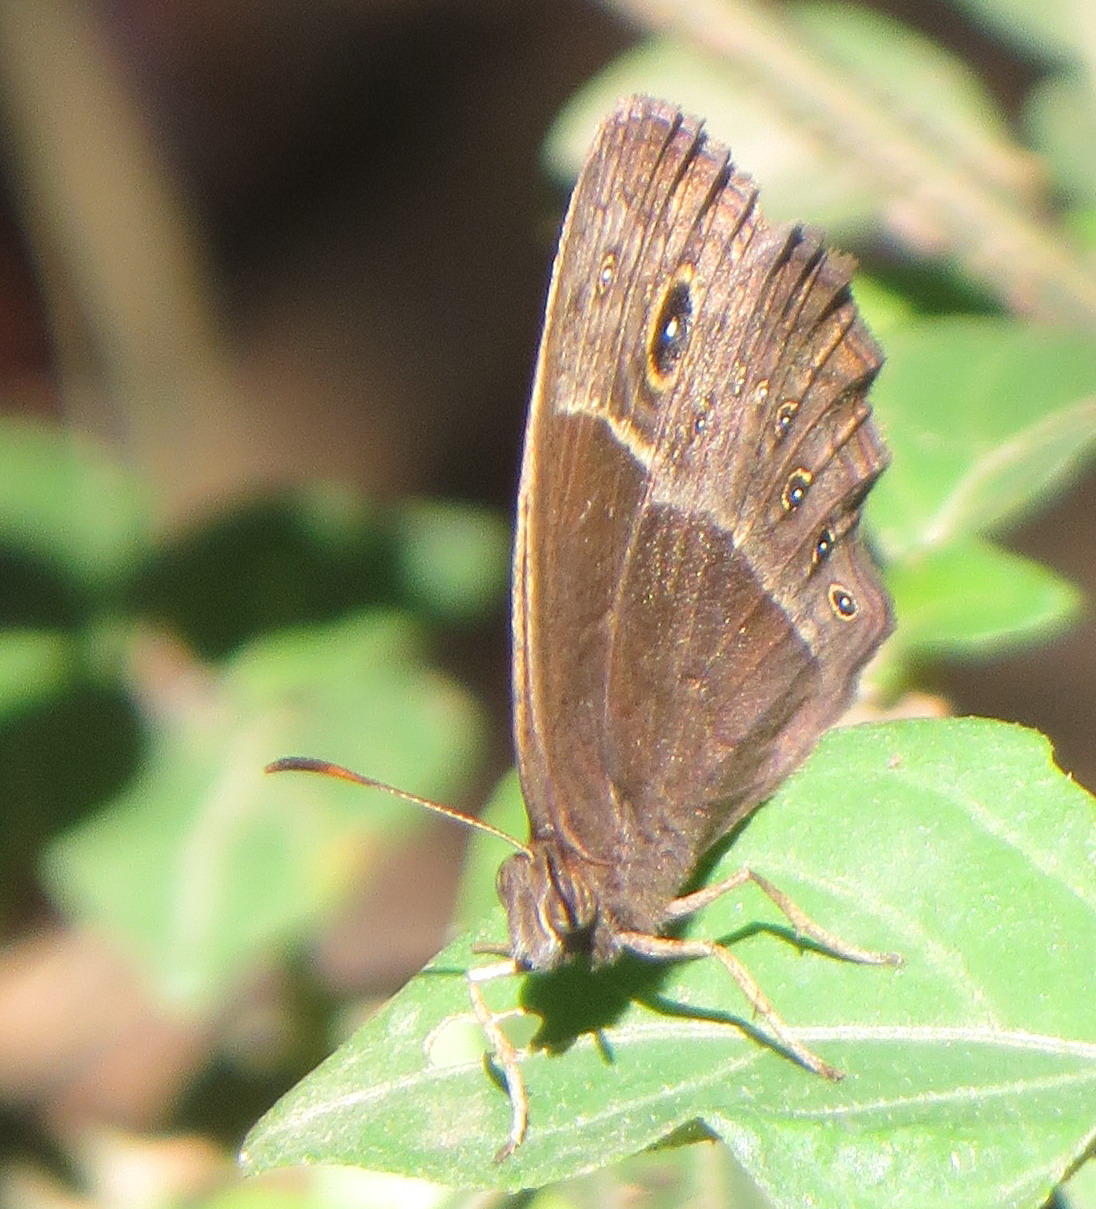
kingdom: Animalia
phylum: Arthropoda
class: Insecta
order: Lepidoptera
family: Nymphalidae
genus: Mycalesis
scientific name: Mycalesis rhacotis
